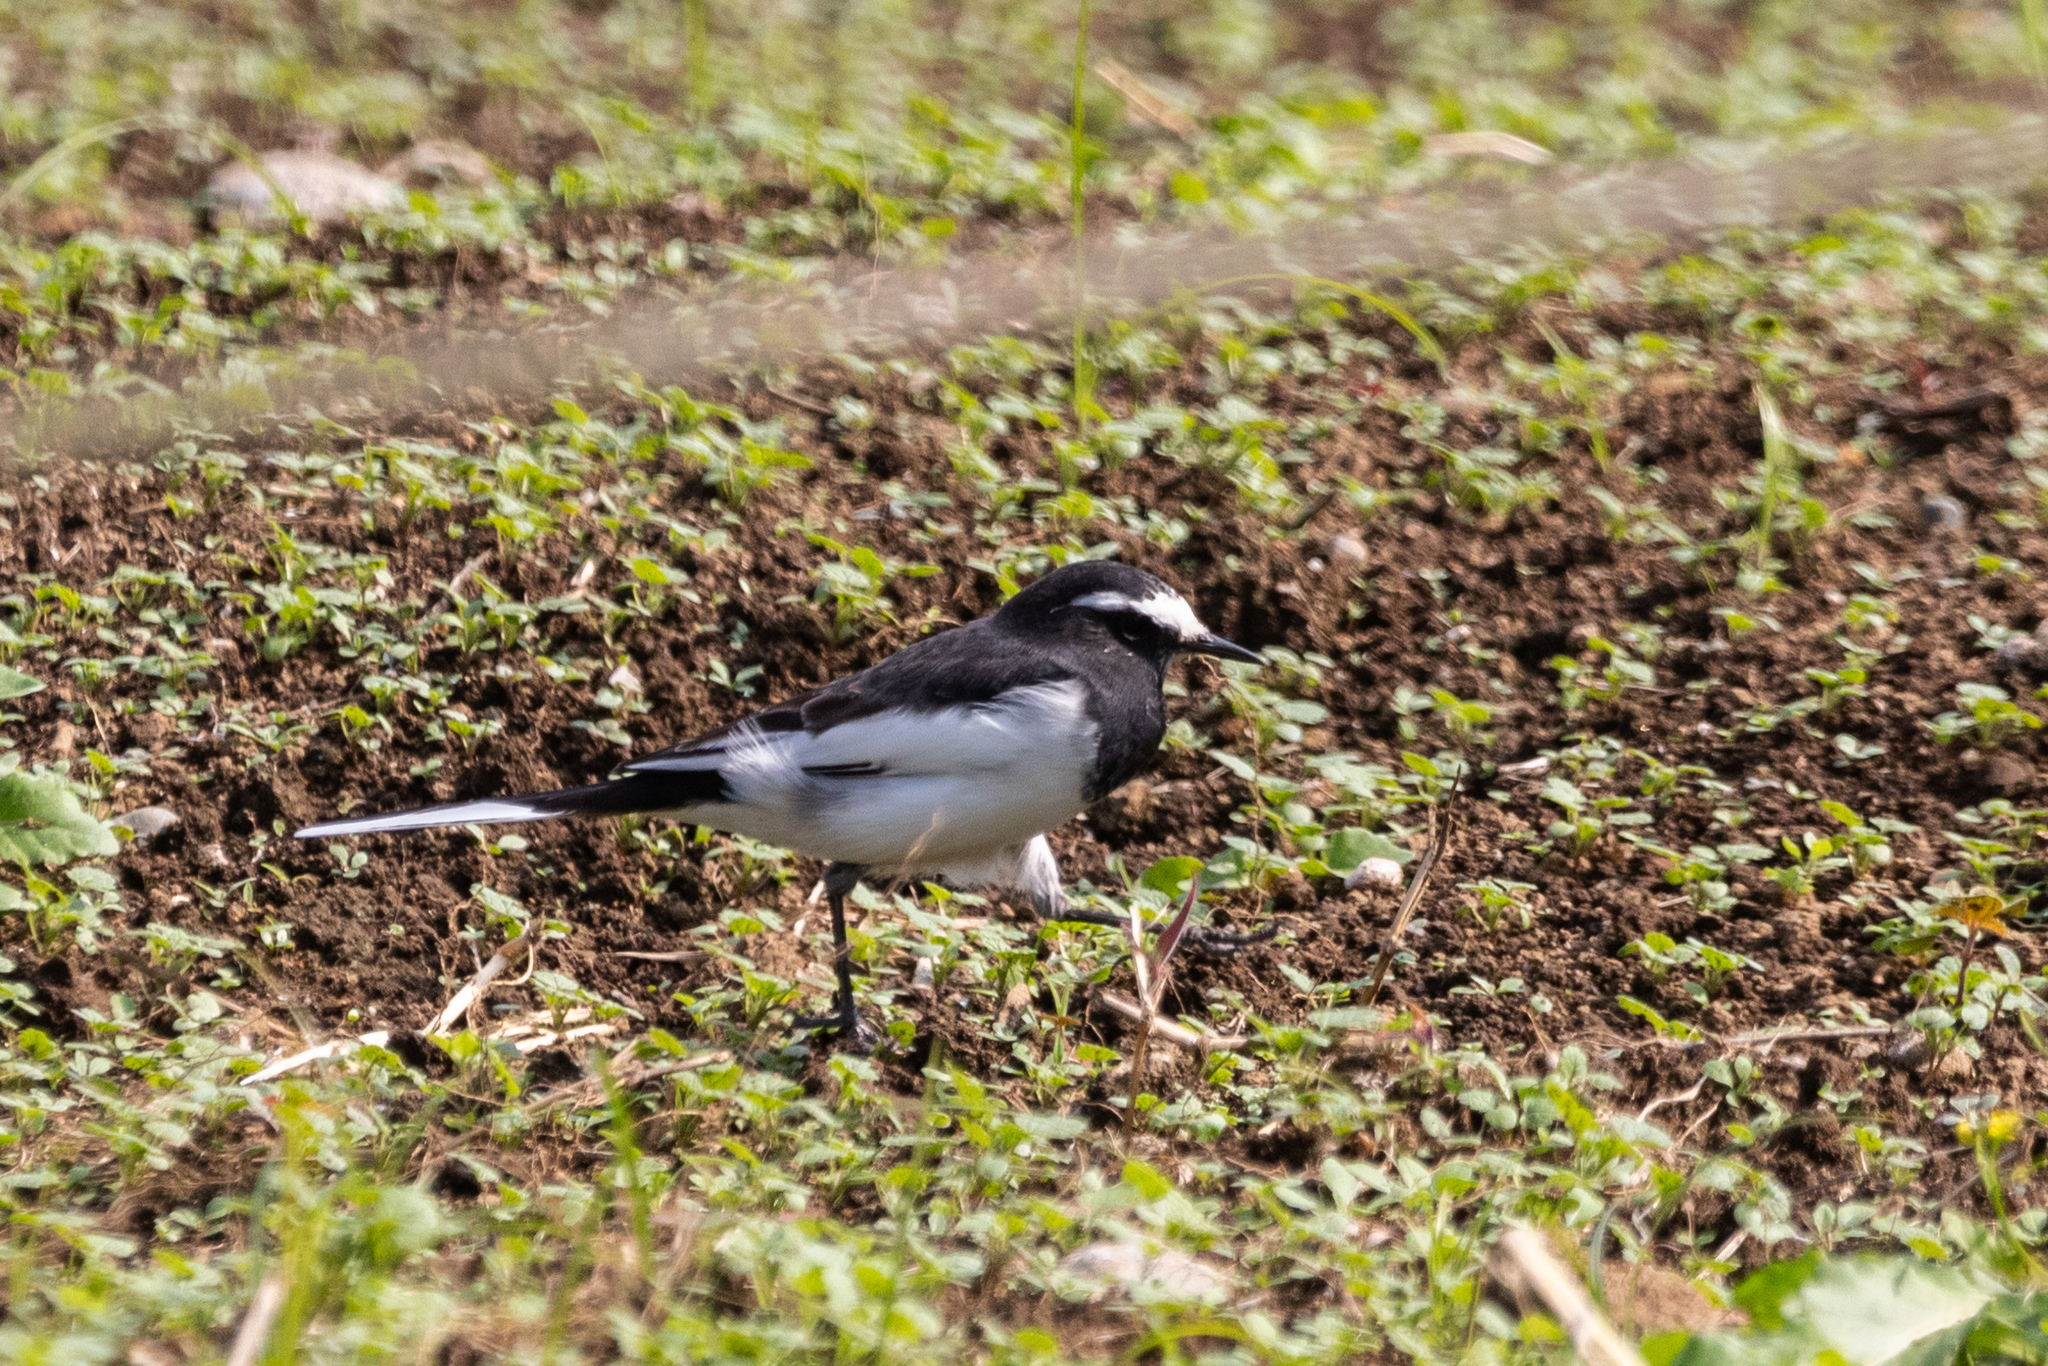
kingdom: Animalia
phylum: Chordata
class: Aves
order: Passeriformes
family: Motacillidae
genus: Motacilla
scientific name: Motacilla grandis
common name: Japanese wagtail
